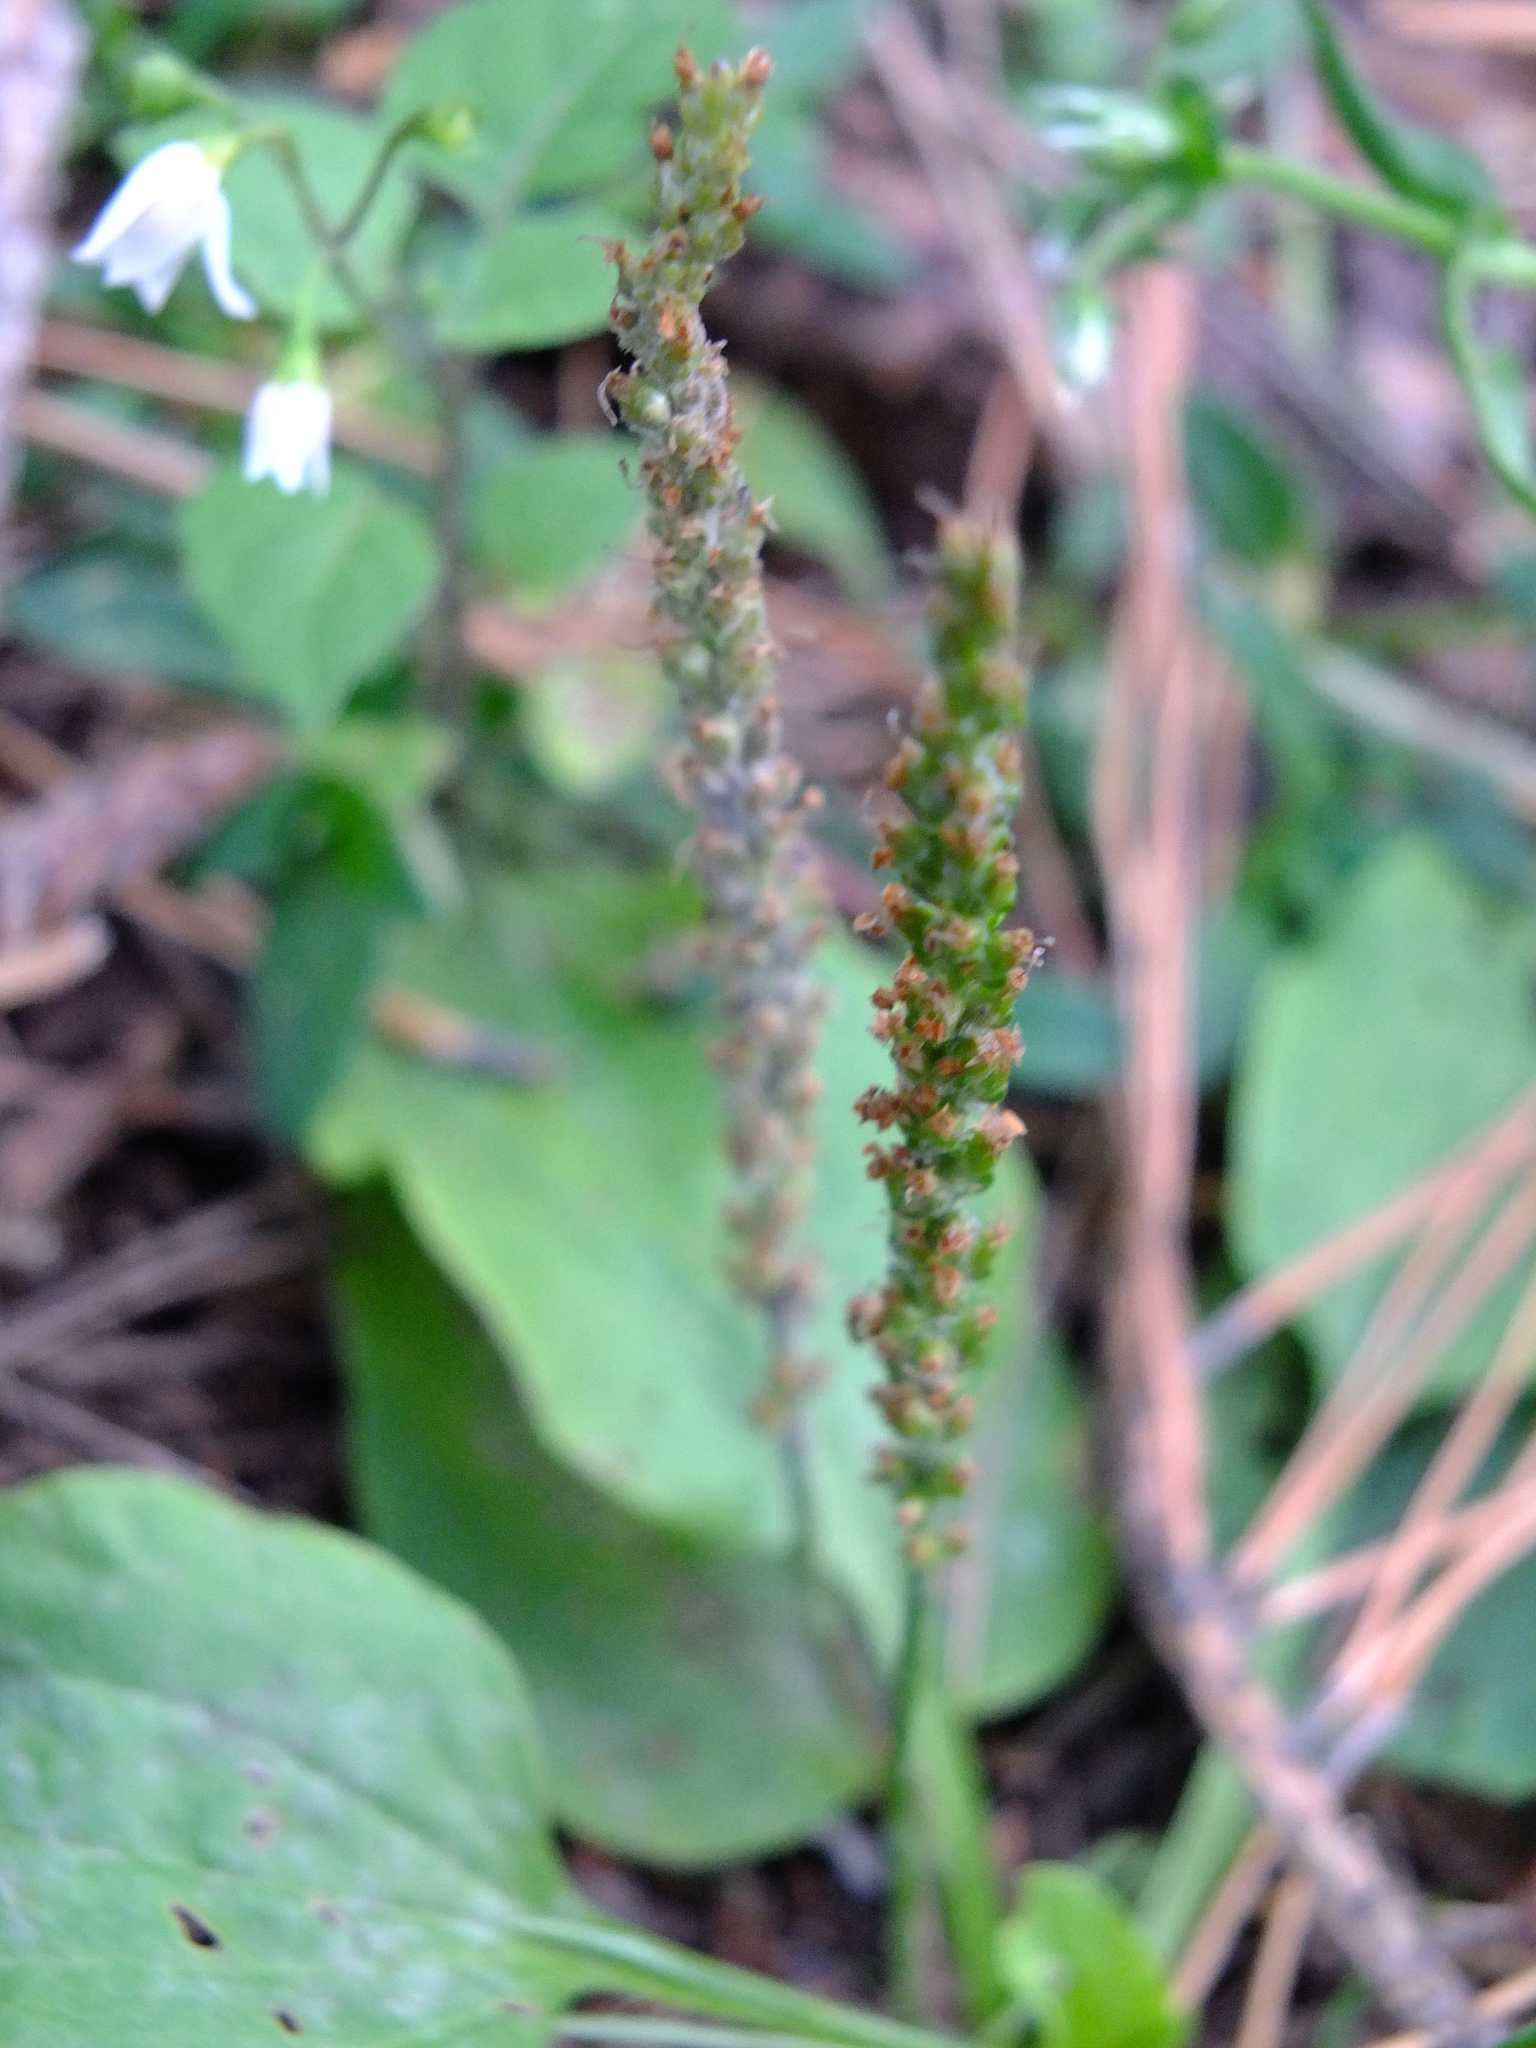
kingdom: Plantae
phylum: Tracheophyta
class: Magnoliopsida
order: Lamiales
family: Plantaginaceae
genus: Plantago
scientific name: Plantago major
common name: Common plantain
